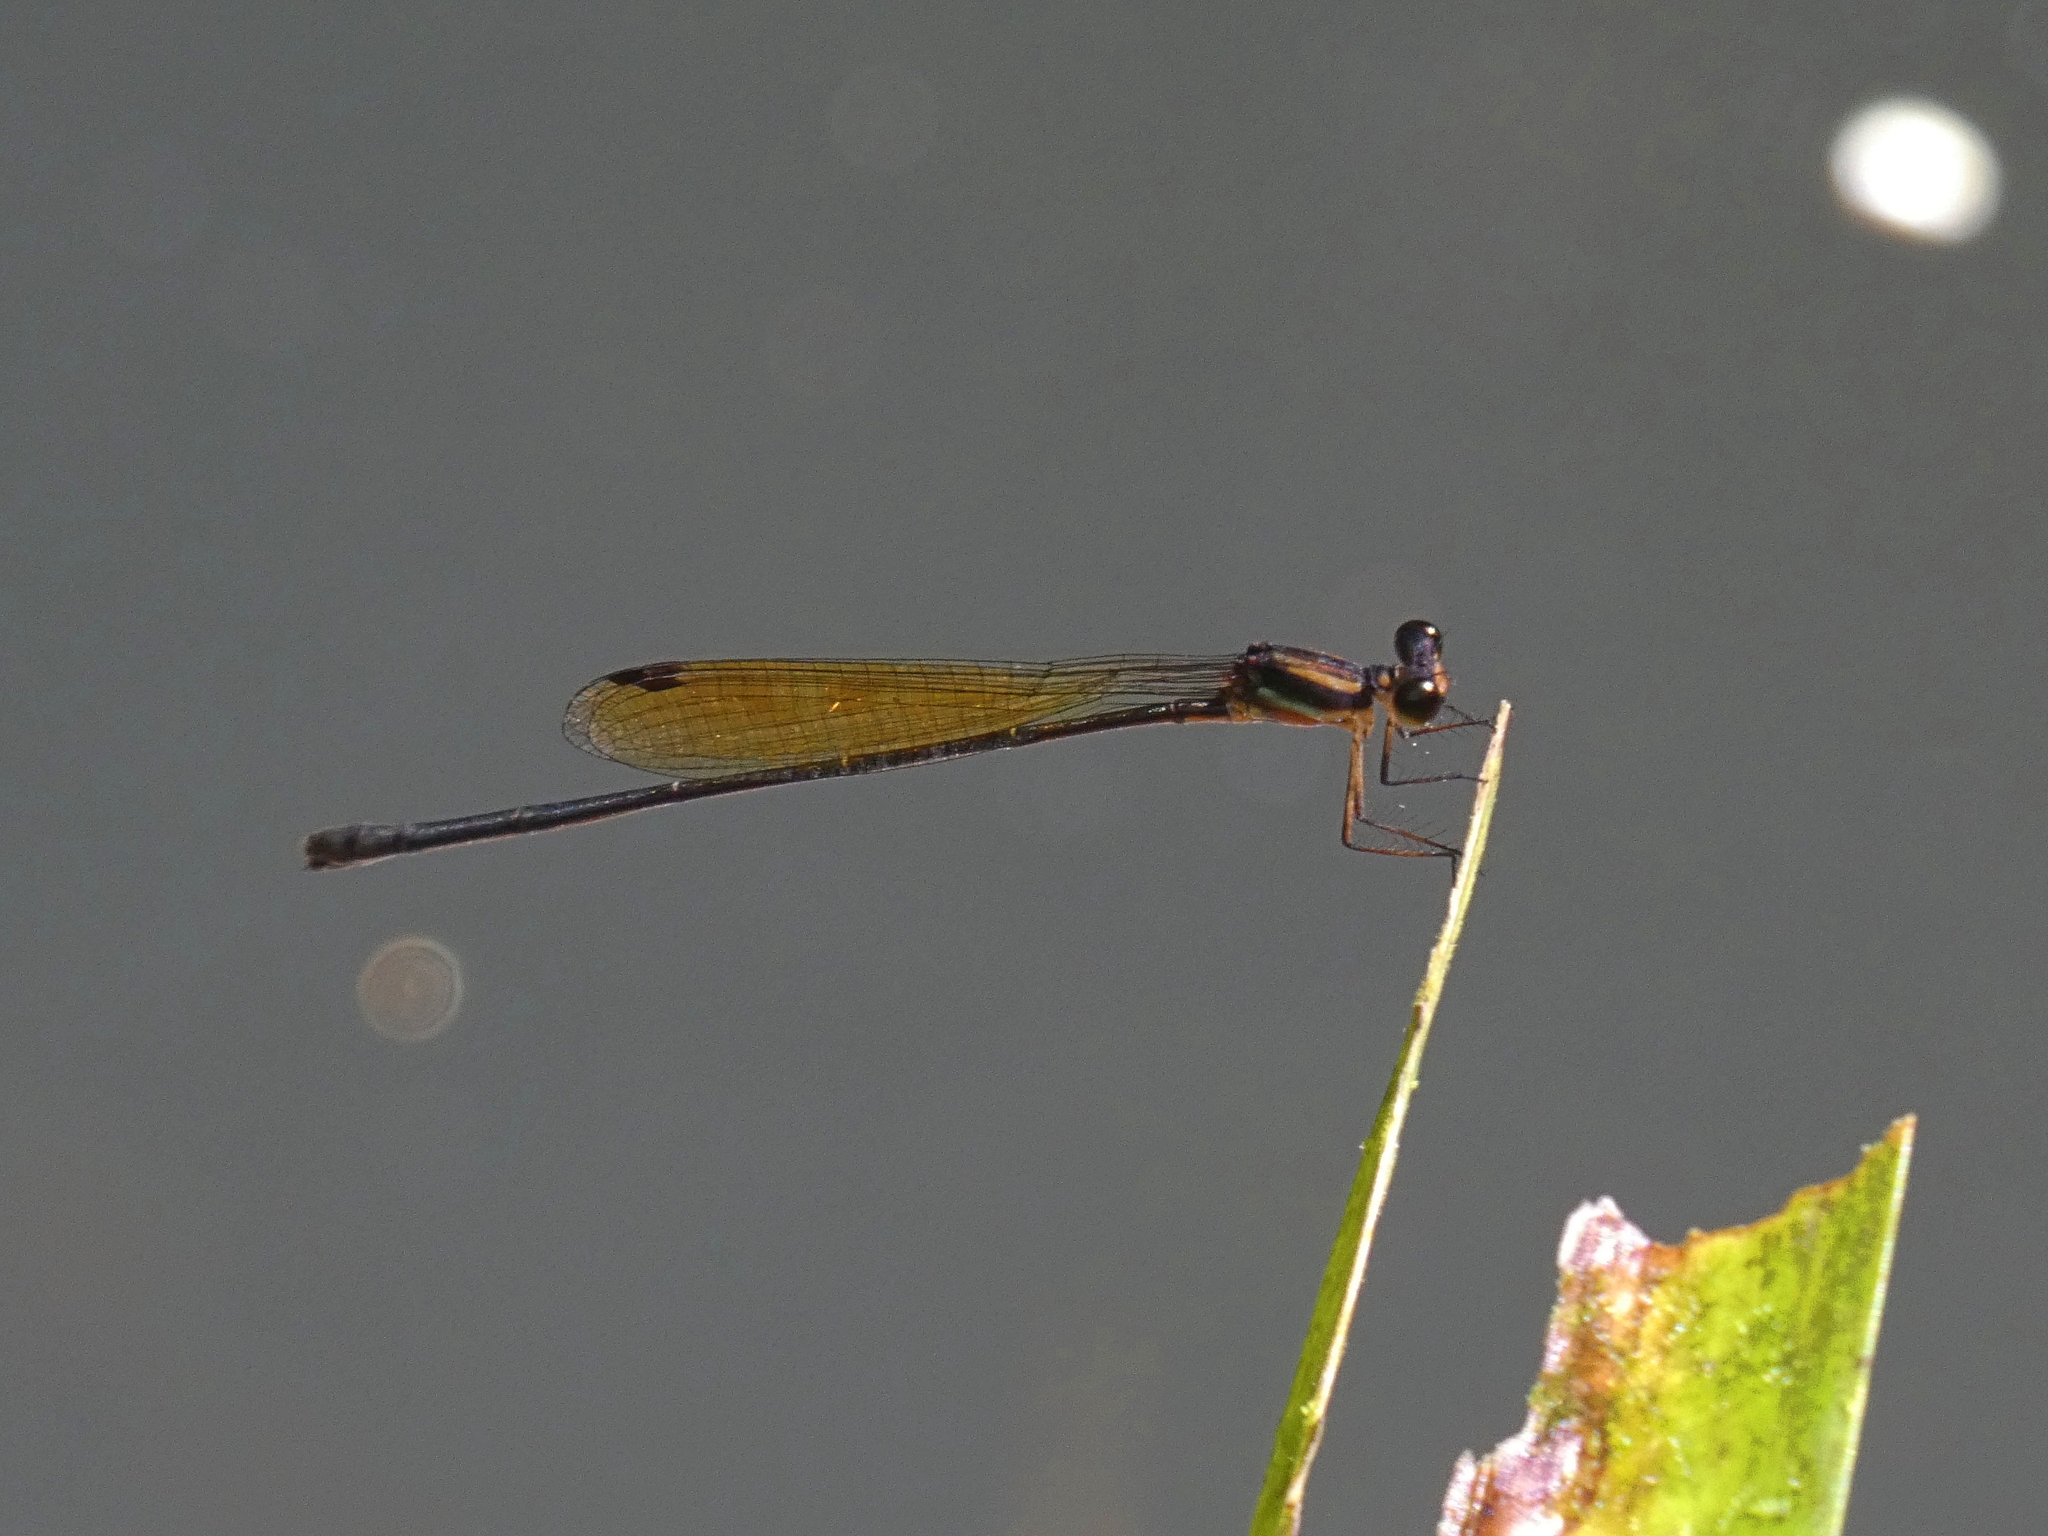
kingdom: Animalia
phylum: Arthropoda
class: Insecta
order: Odonata
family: Platycnemididae
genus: Nososticta
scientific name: Nososticta coelestina
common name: Green-blue threadtail
